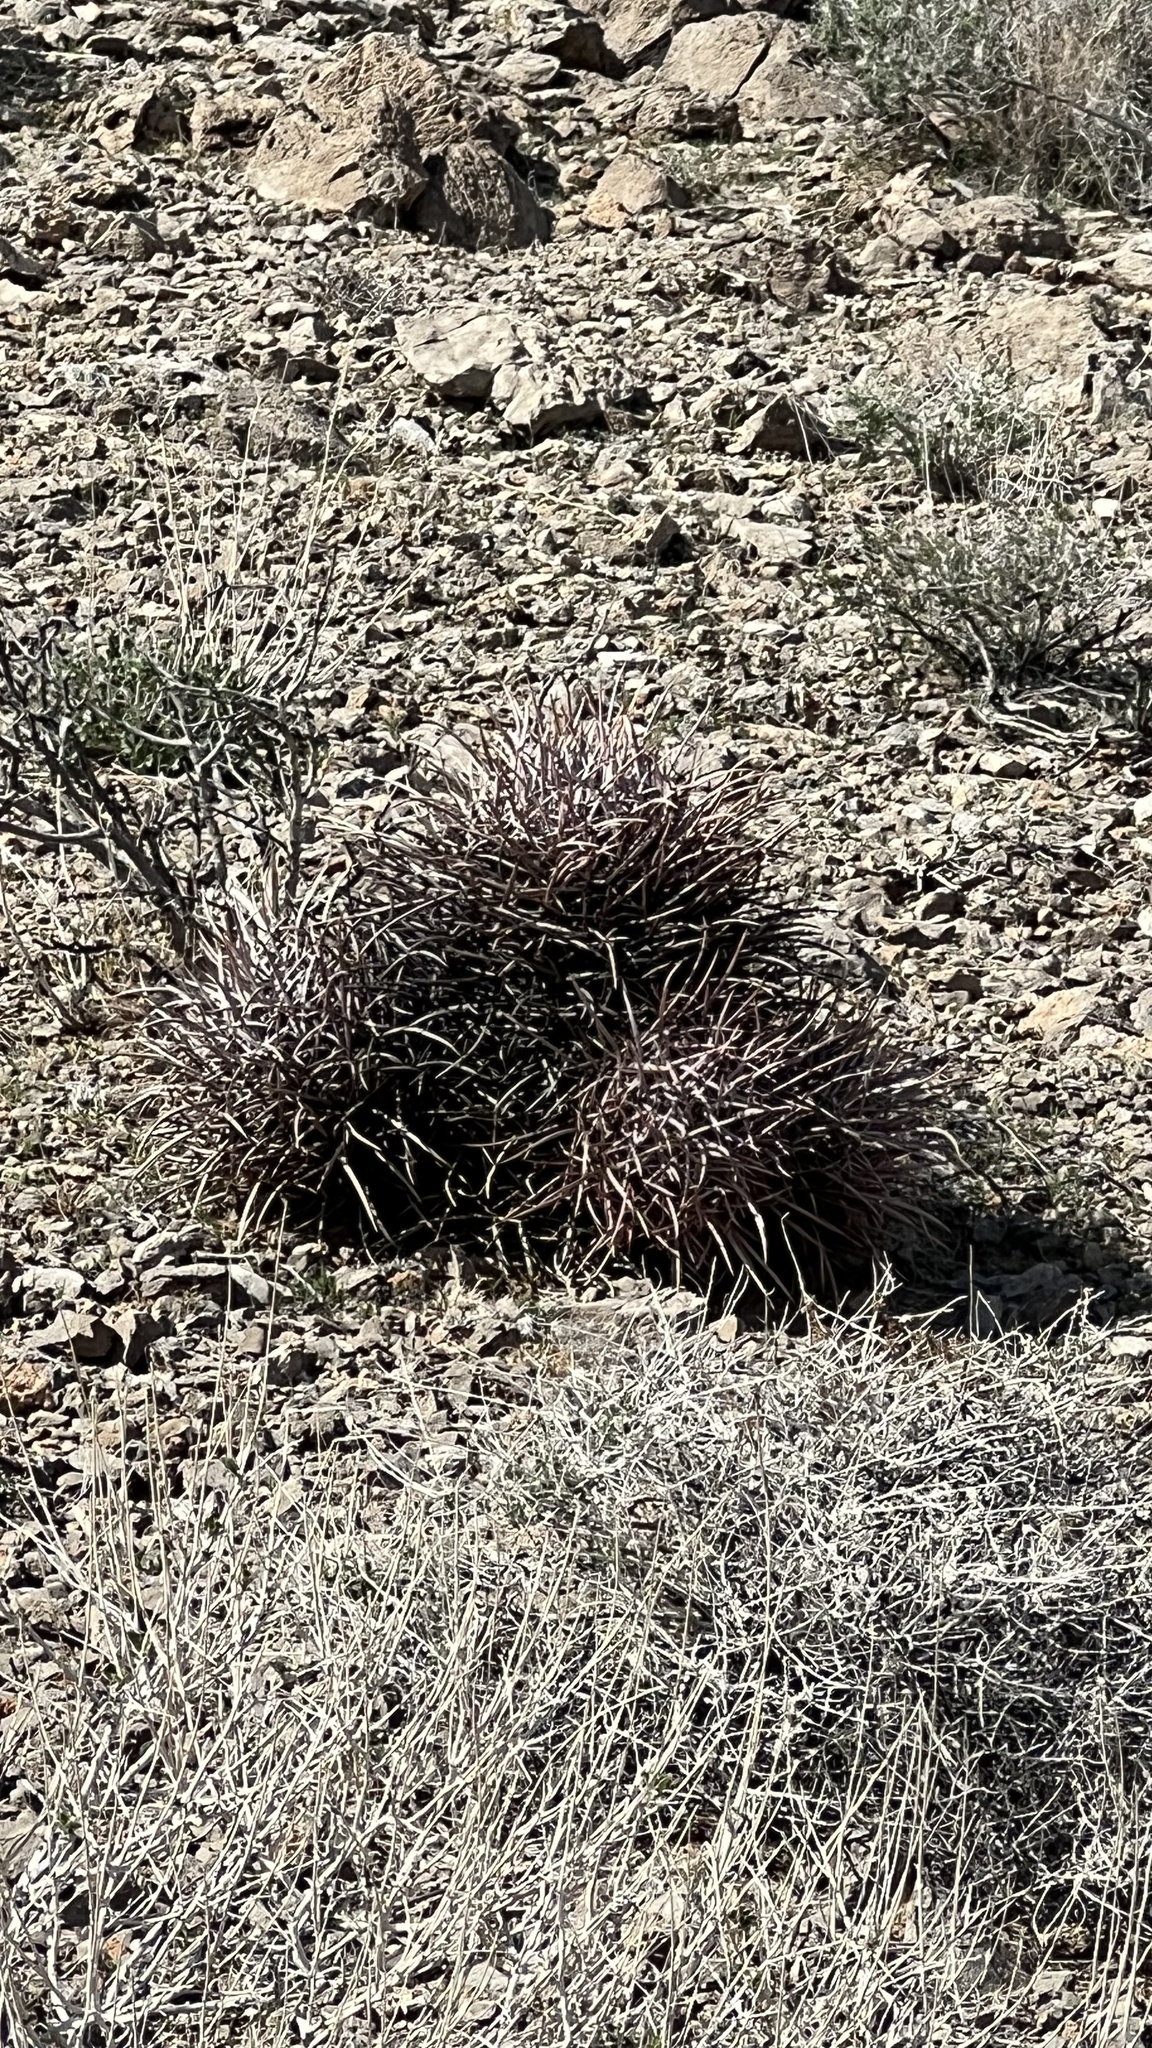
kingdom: Plantae
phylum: Tracheophyta
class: Magnoliopsida
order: Caryophyllales
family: Cactaceae
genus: Echinocactus
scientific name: Echinocactus polycephalus
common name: Cottontop cactus
